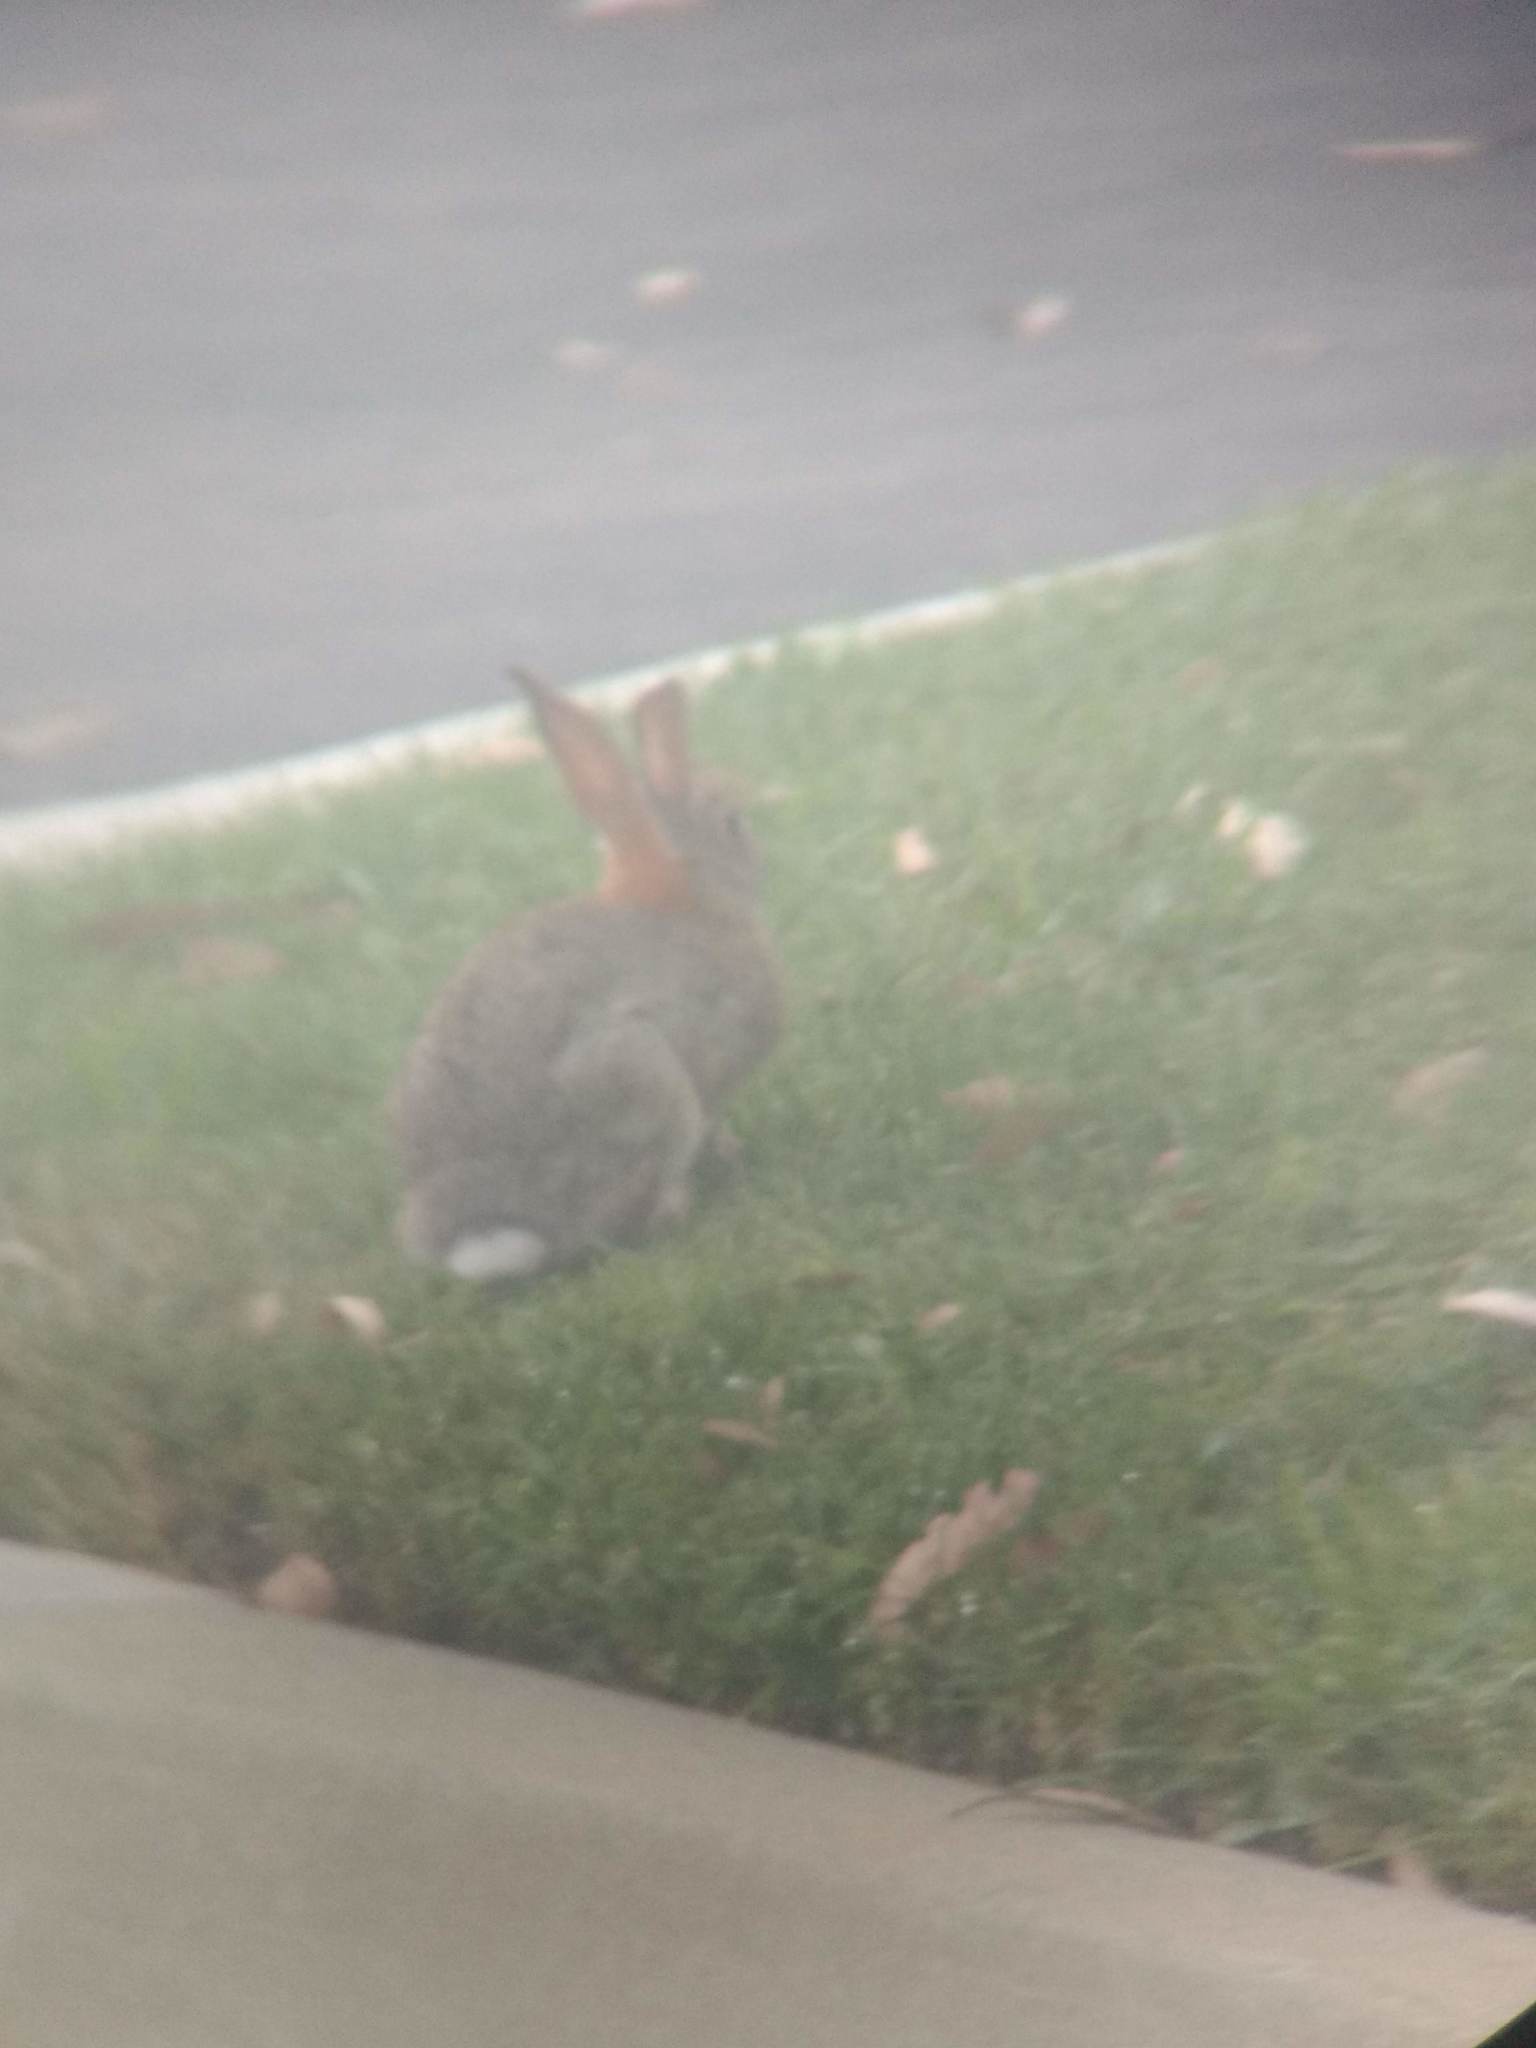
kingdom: Animalia
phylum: Chordata
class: Mammalia
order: Lagomorpha
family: Leporidae
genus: Sylvilagus
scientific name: Sylvilagus audubonii
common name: Desert cottontail
